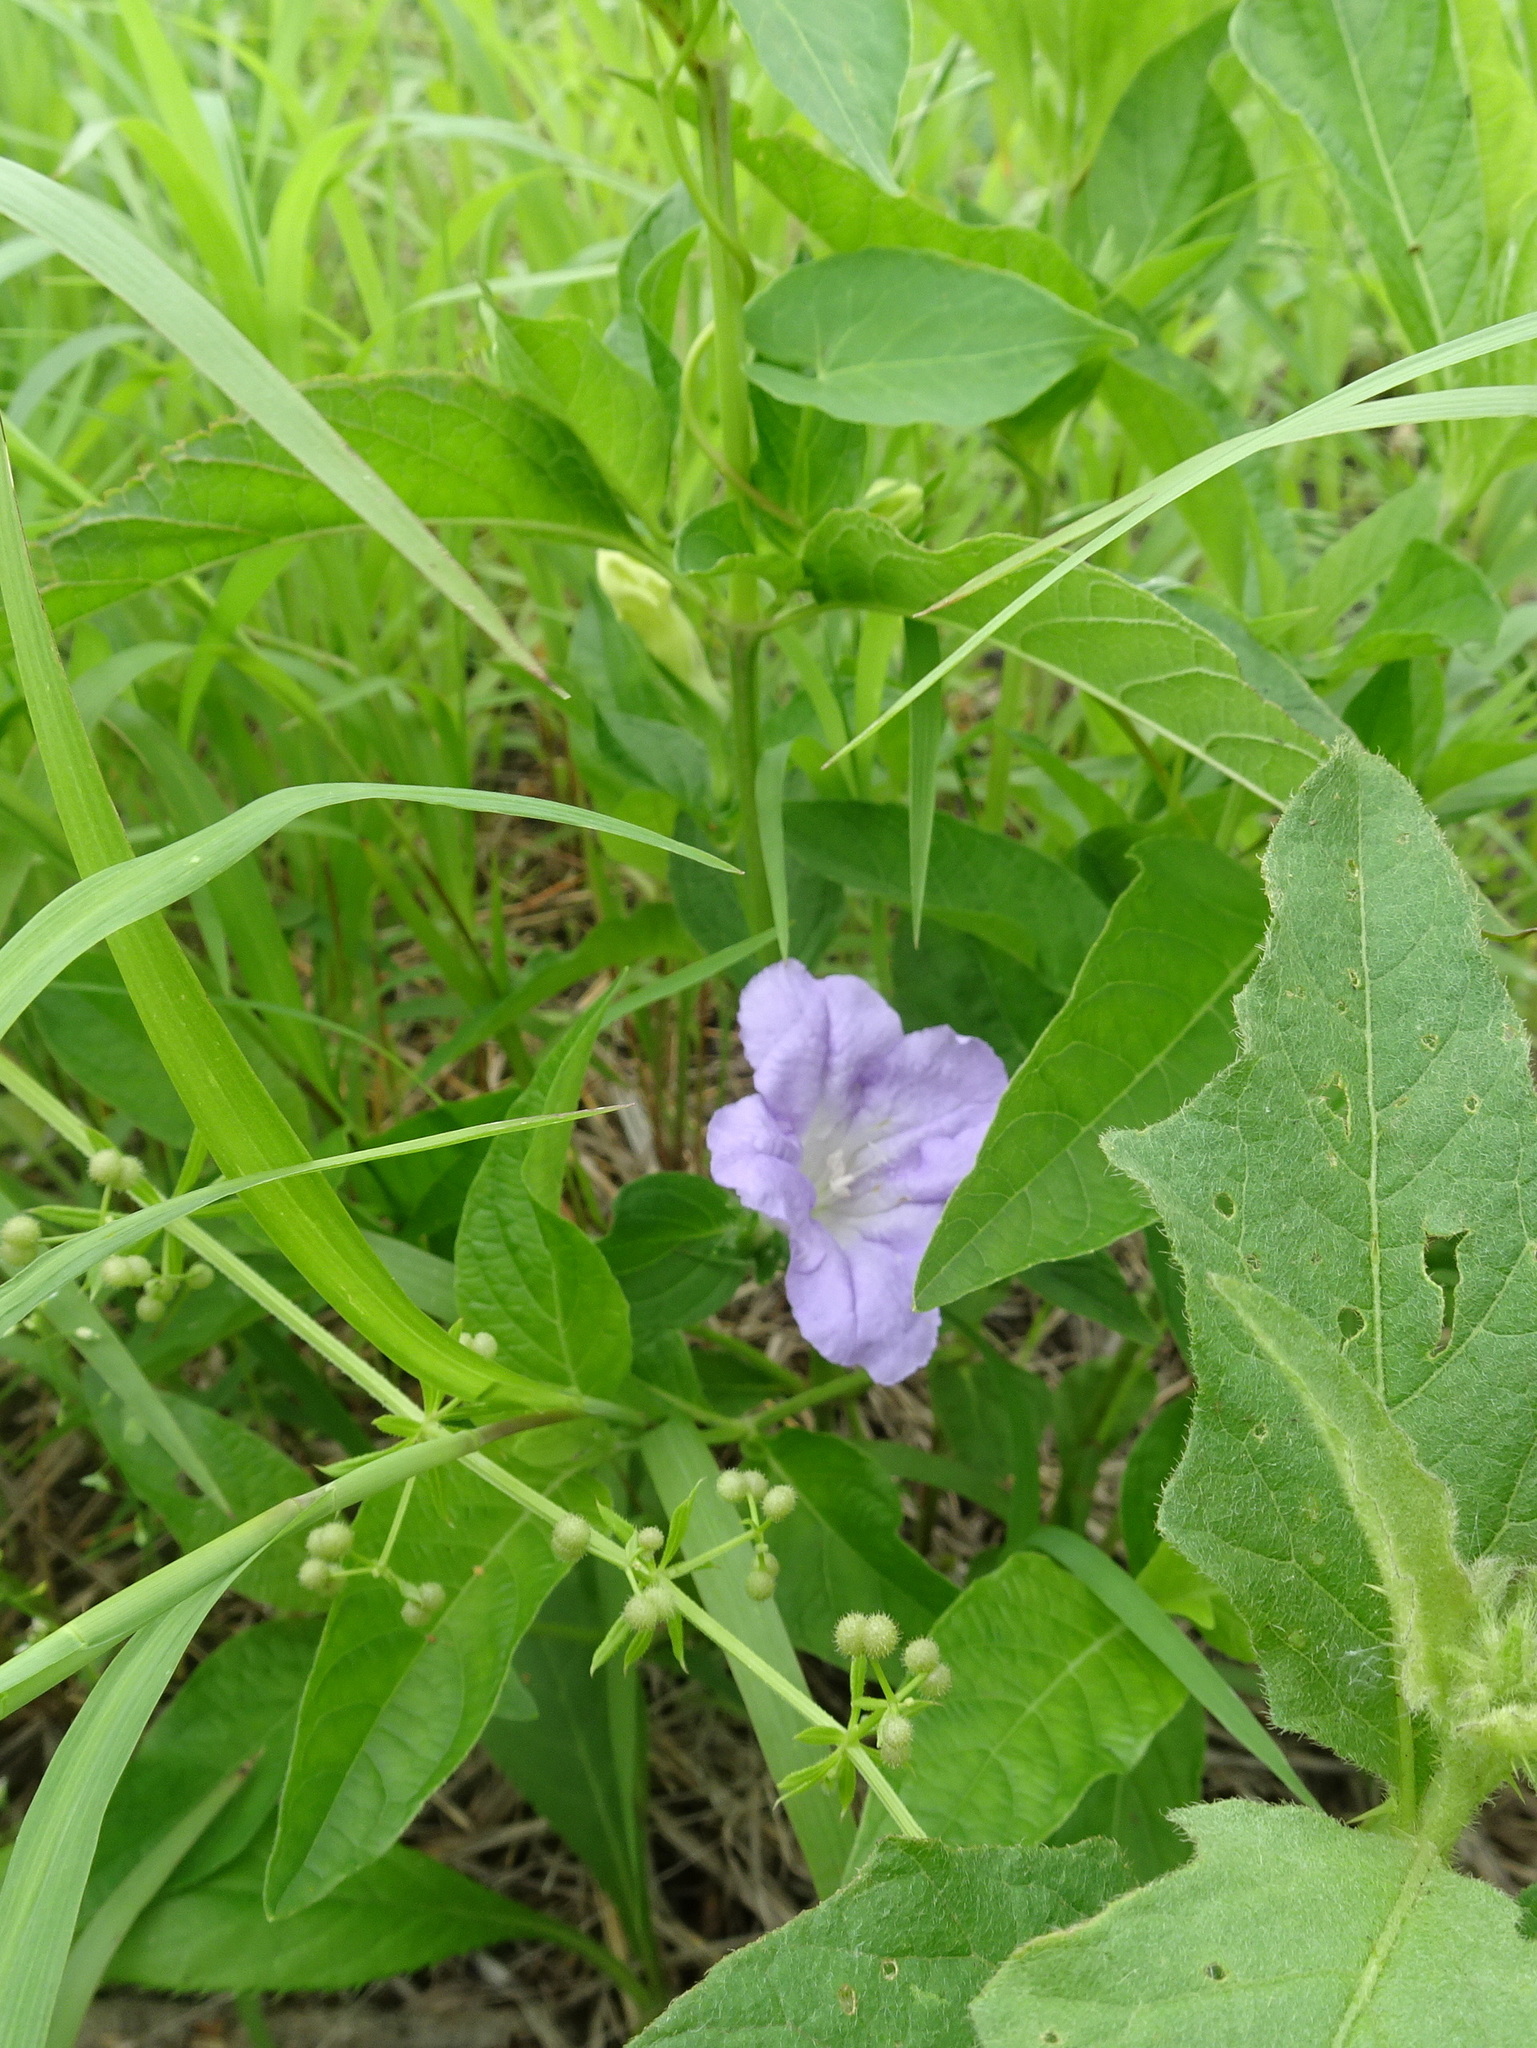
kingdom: Plantae
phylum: Tracheophyta
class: Magnoliopsida
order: Lamiales
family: Acanthaceae
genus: Ruellia
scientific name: Ruellia strepens
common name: Limestone wild petunia
